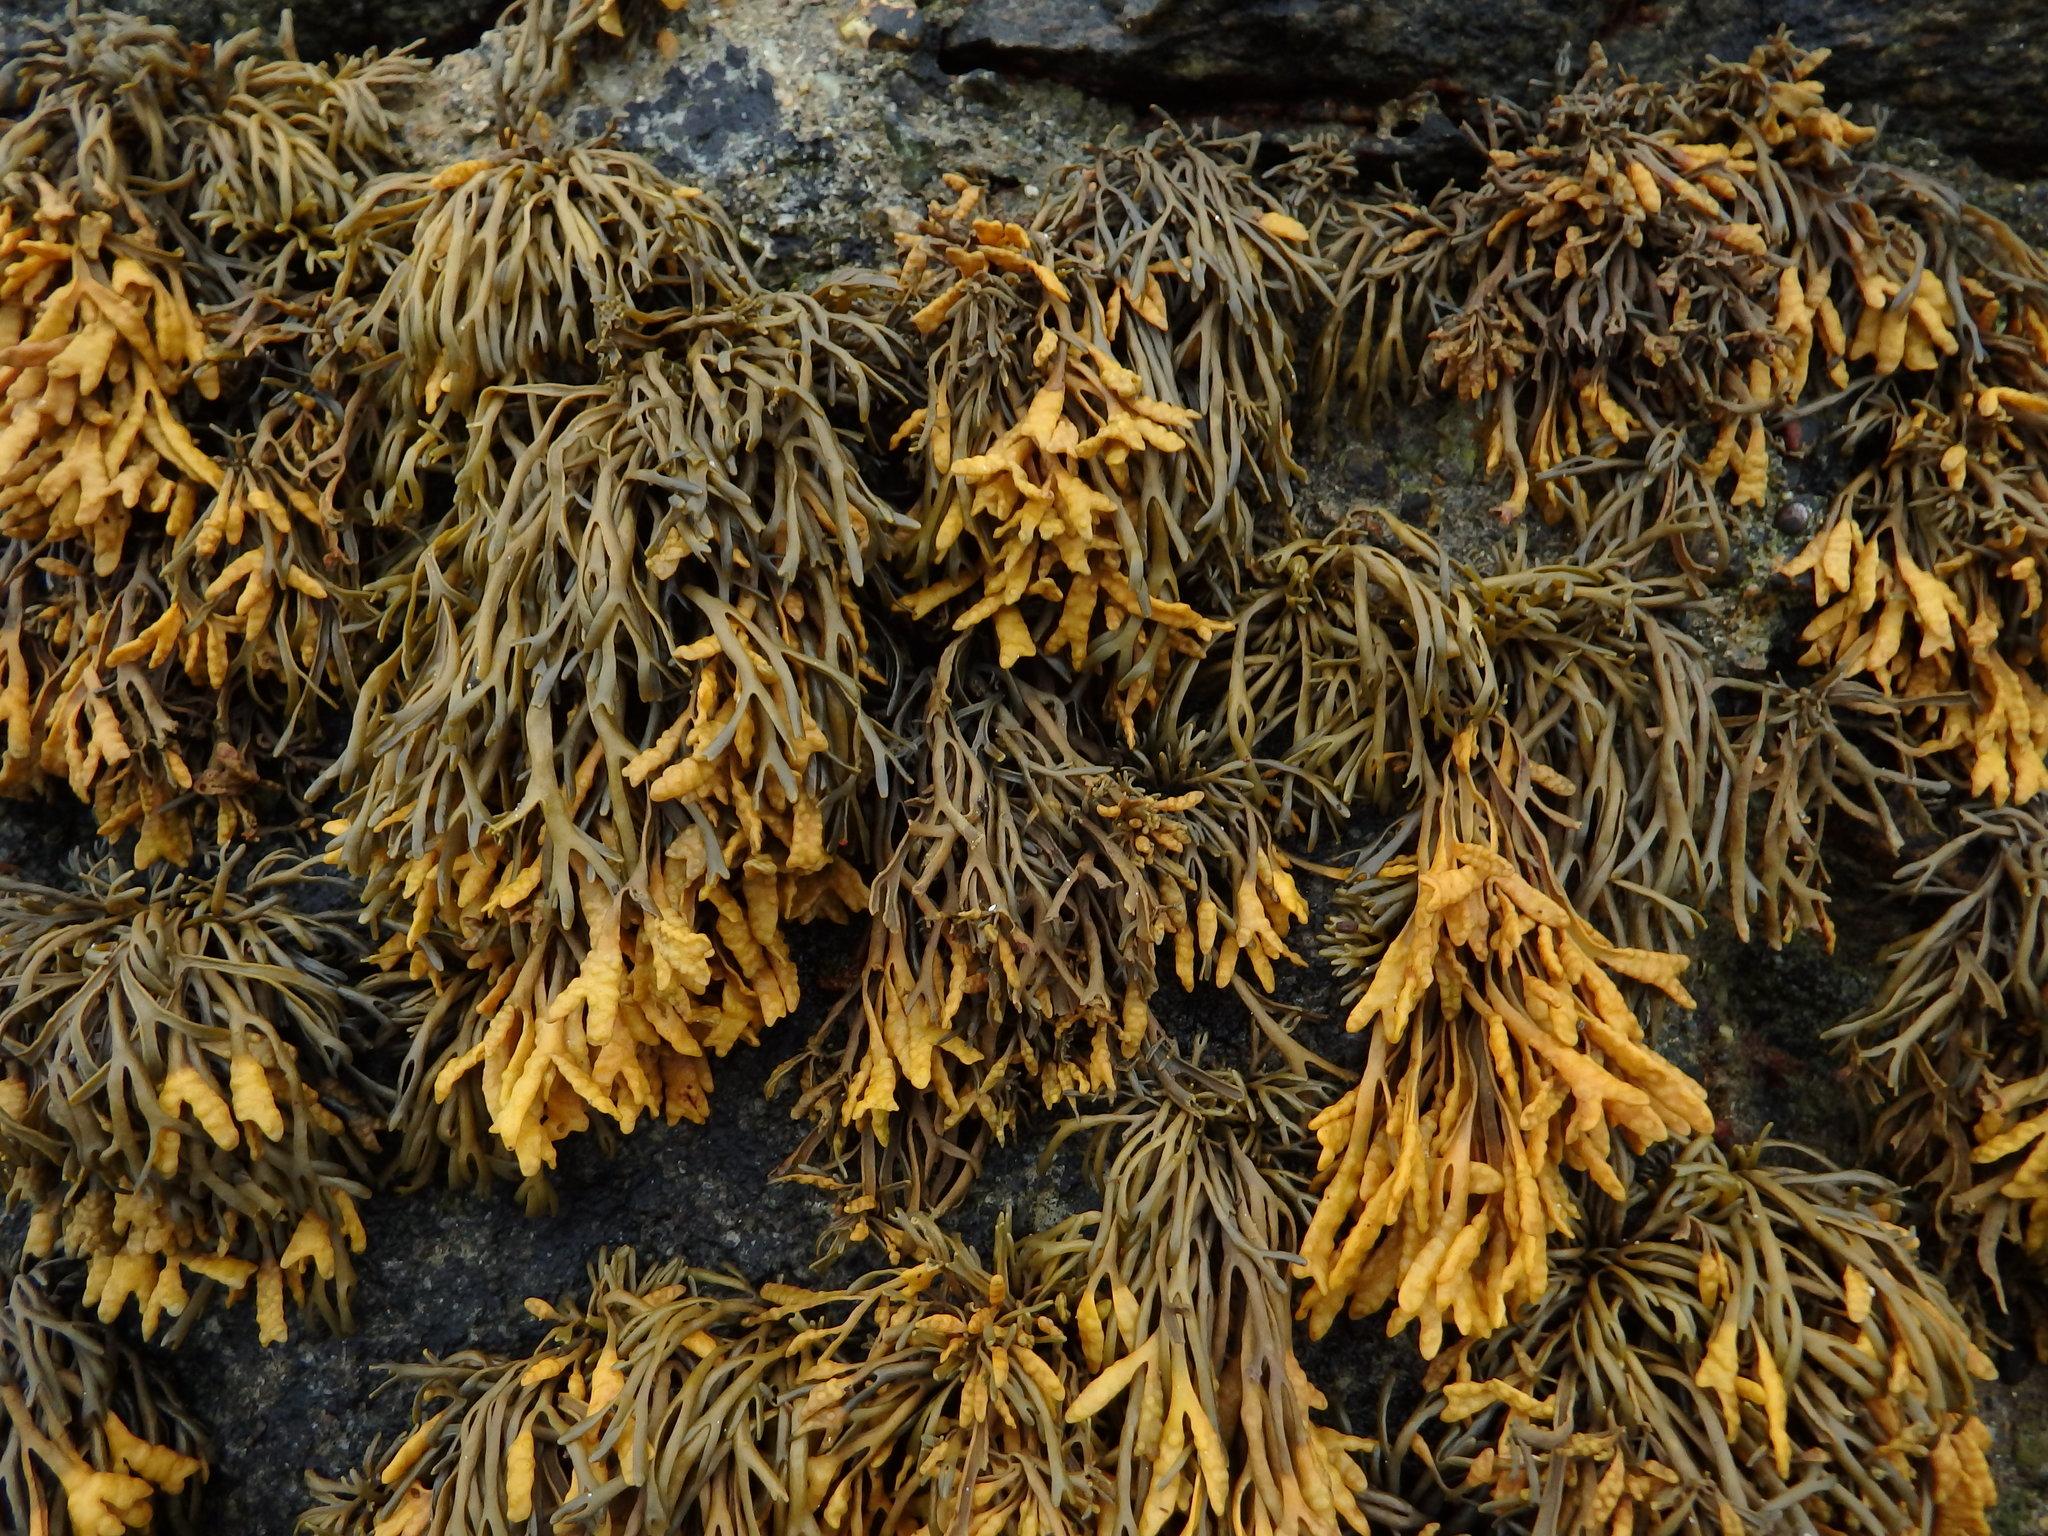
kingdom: Chromista
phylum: Ochrophyta
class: Phaeophyceae
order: Fucales
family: Fucaceae
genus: Pelvetia
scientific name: Pelvetia canaliculata
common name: Channelled wrack
